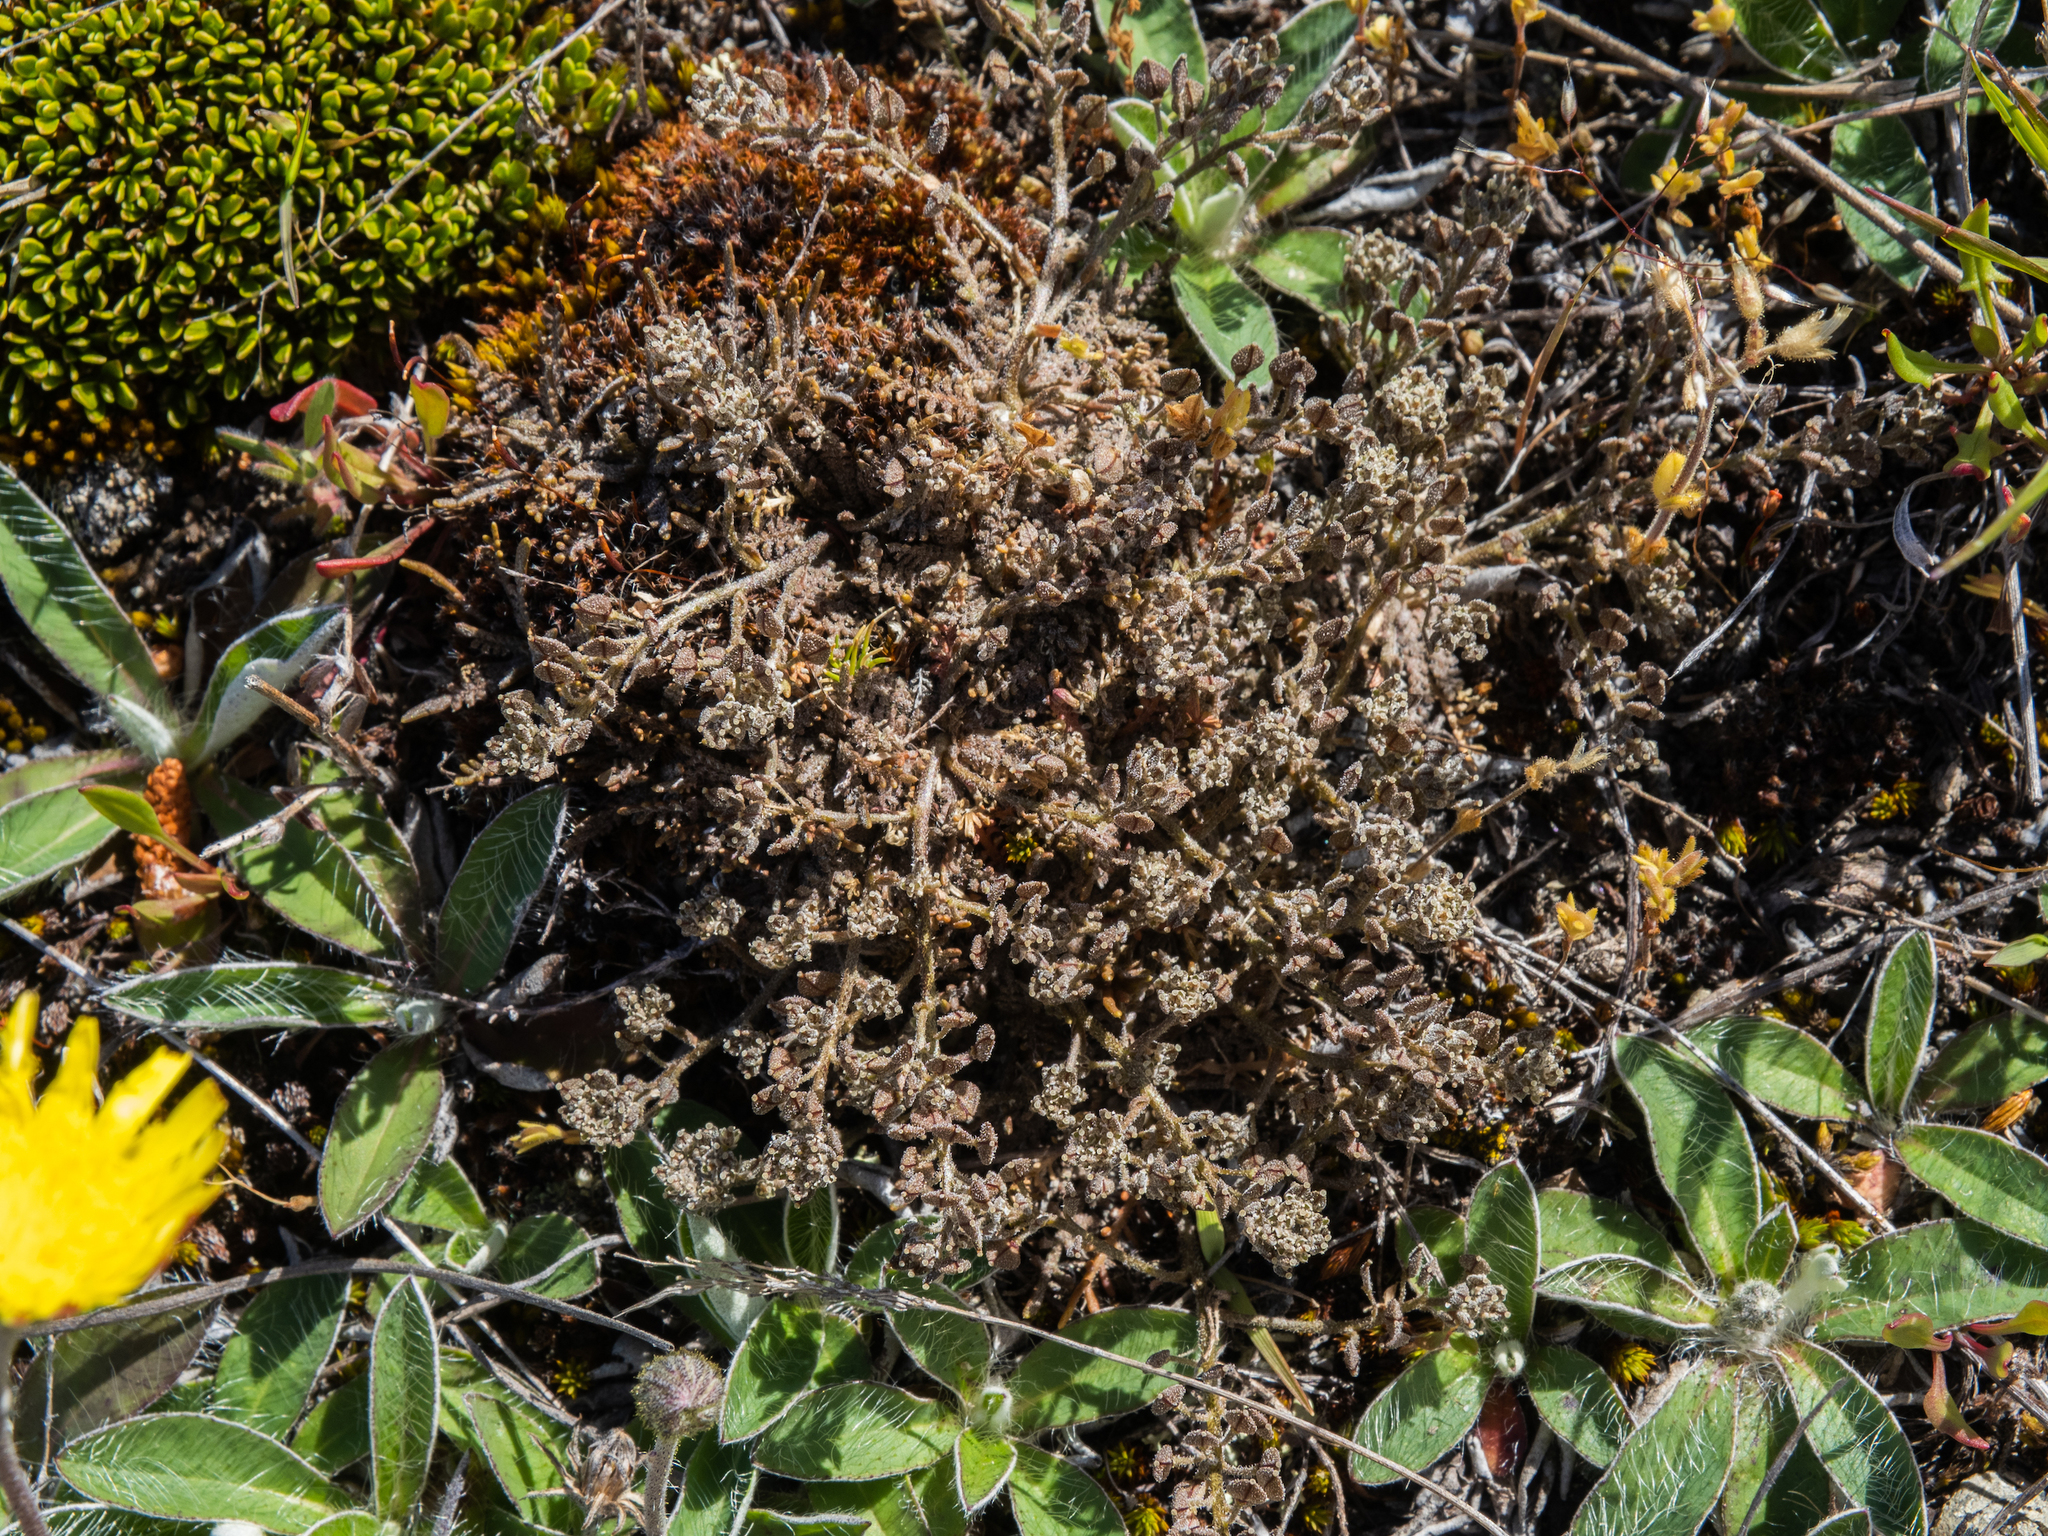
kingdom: Plantae
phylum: Tracheophyta
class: Magnoliopsida
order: Brassicales
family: Brassicaceae
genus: Lepidium
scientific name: Lepidium sisymbrioides
